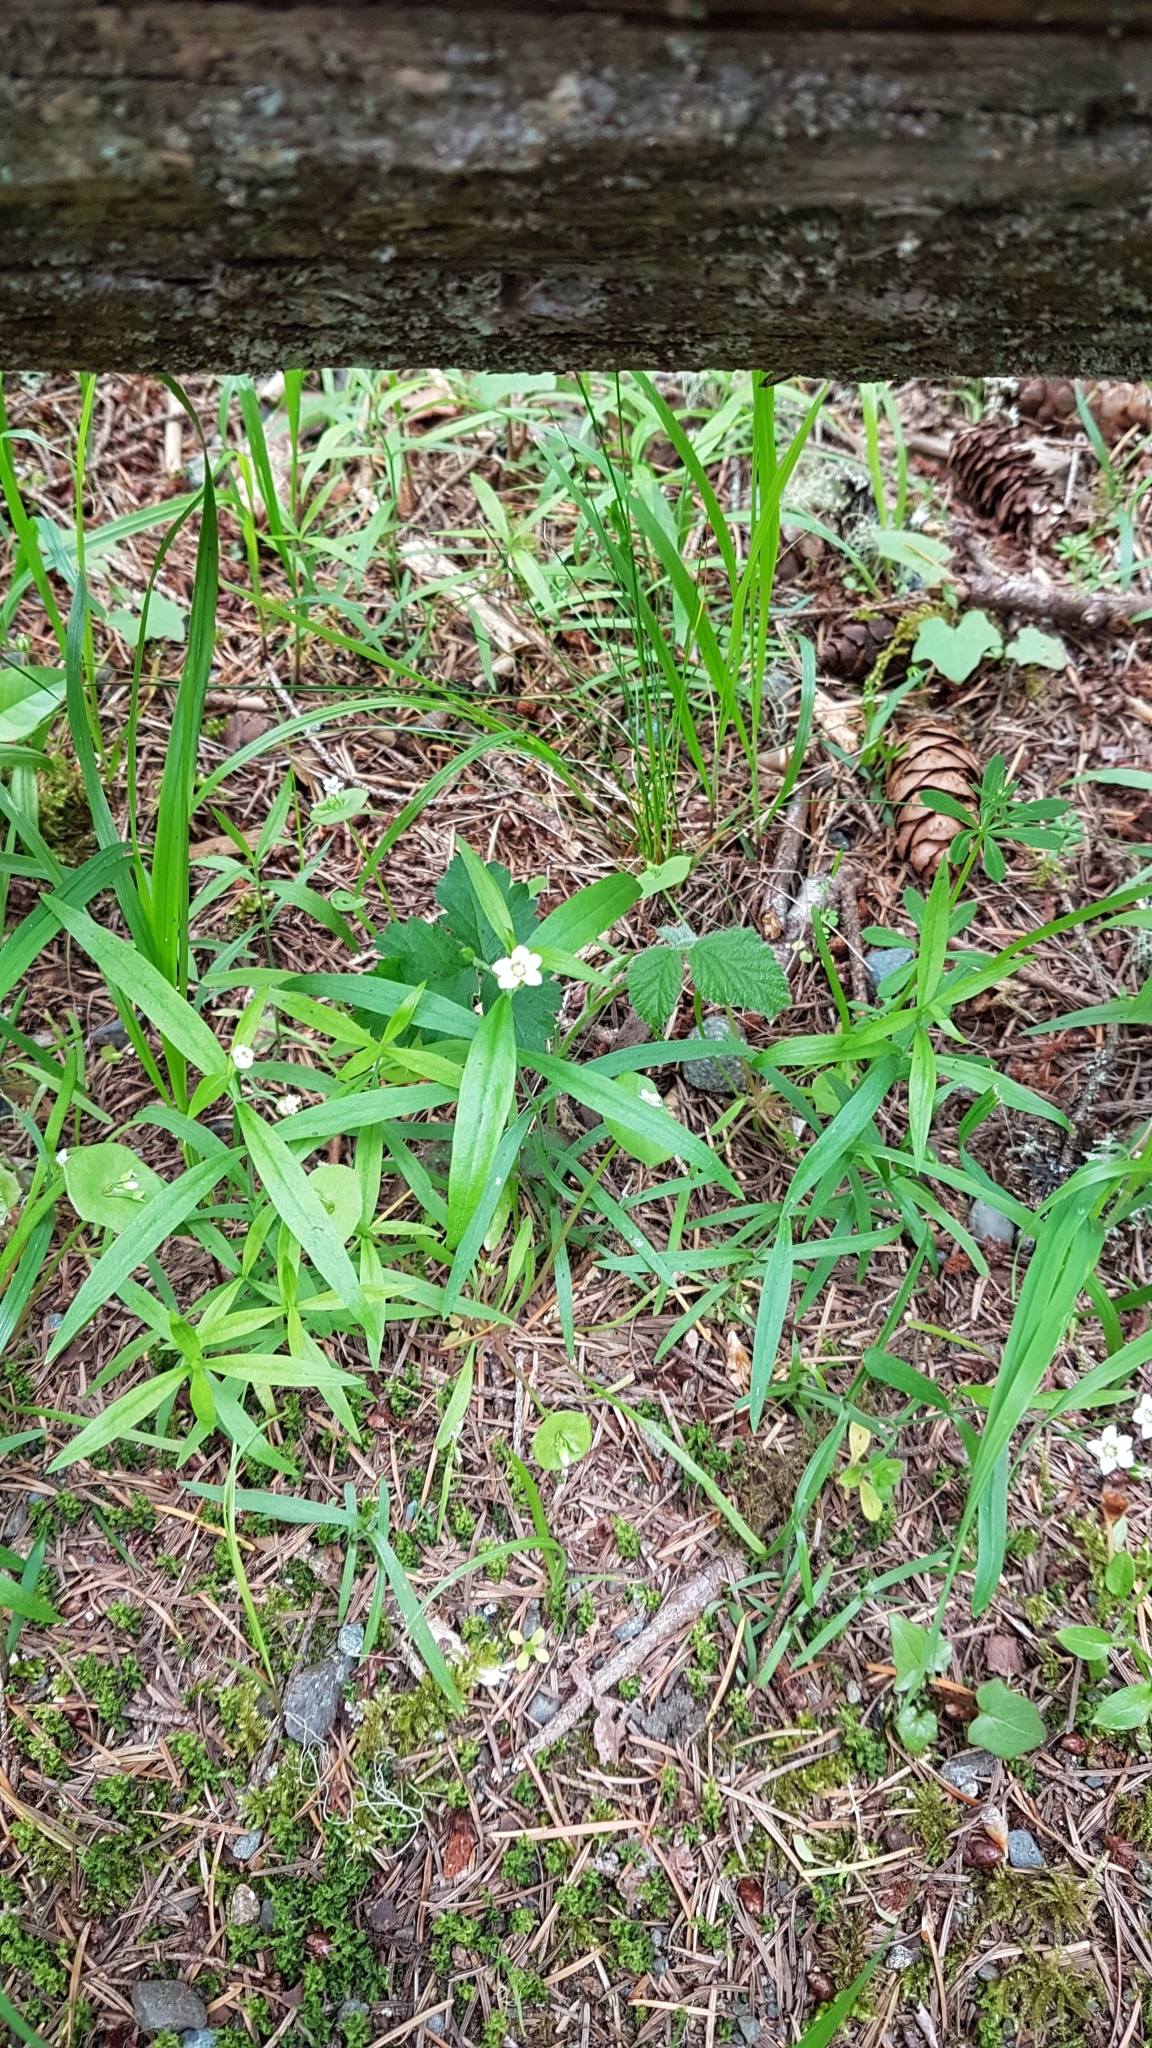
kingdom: Plantae
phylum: Tracheophyta
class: Magnoliopsida
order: Caryophyllales
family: Caryophyllaceae
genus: Moehringia
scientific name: Moehringia macrophylla
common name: Big-leaf sandwort
